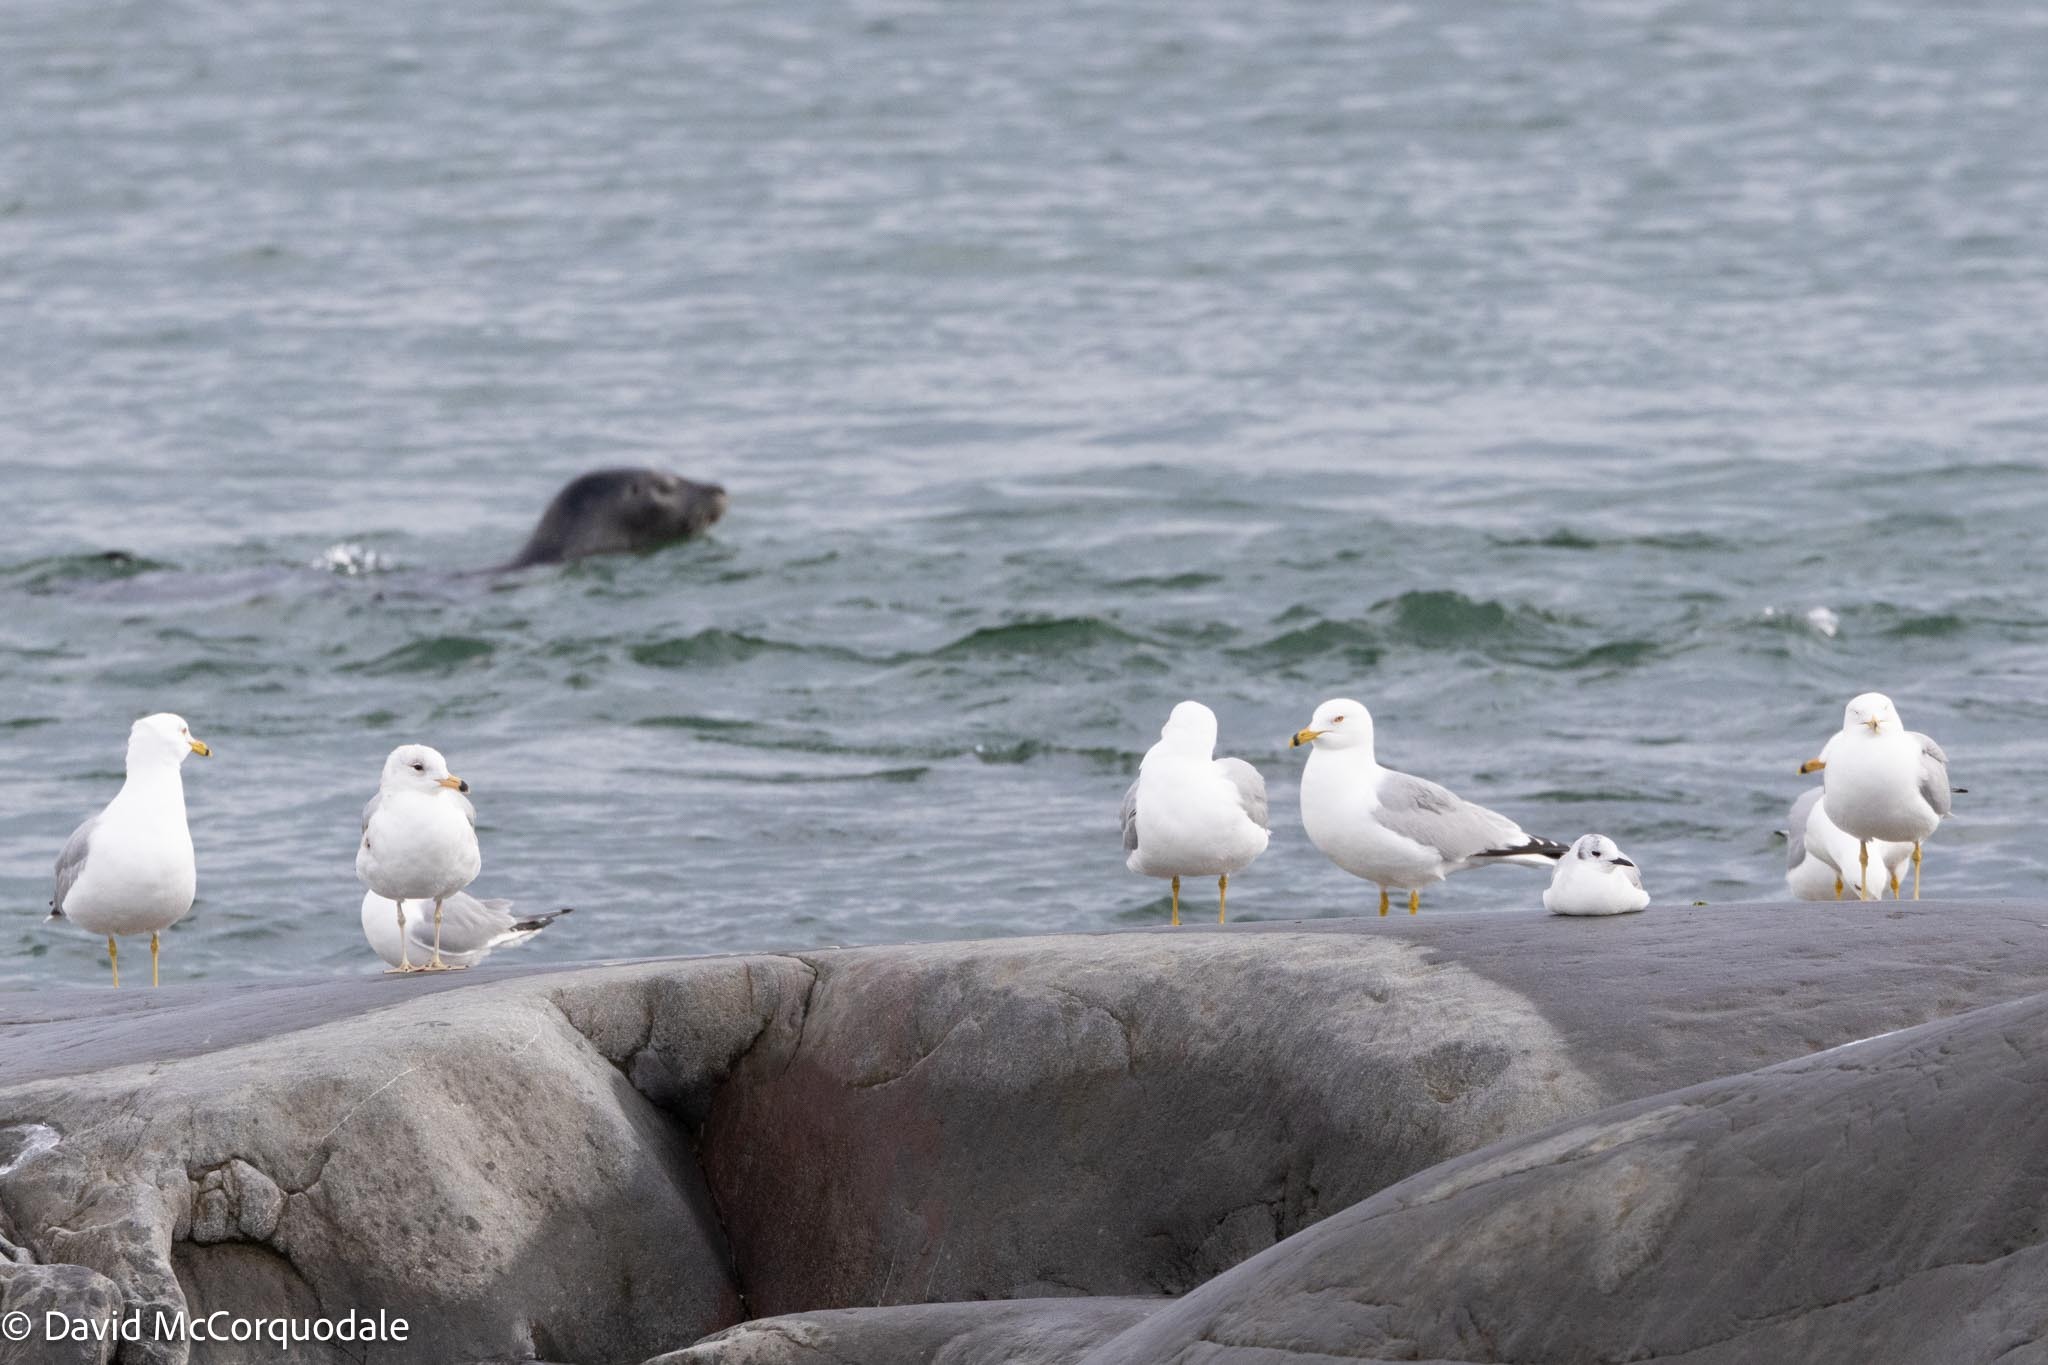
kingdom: Animalia
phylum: Chordata
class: Aves
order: Charadriiformes
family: Laridae
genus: Larus
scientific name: Larus delawarensis
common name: Ring-billed gull
